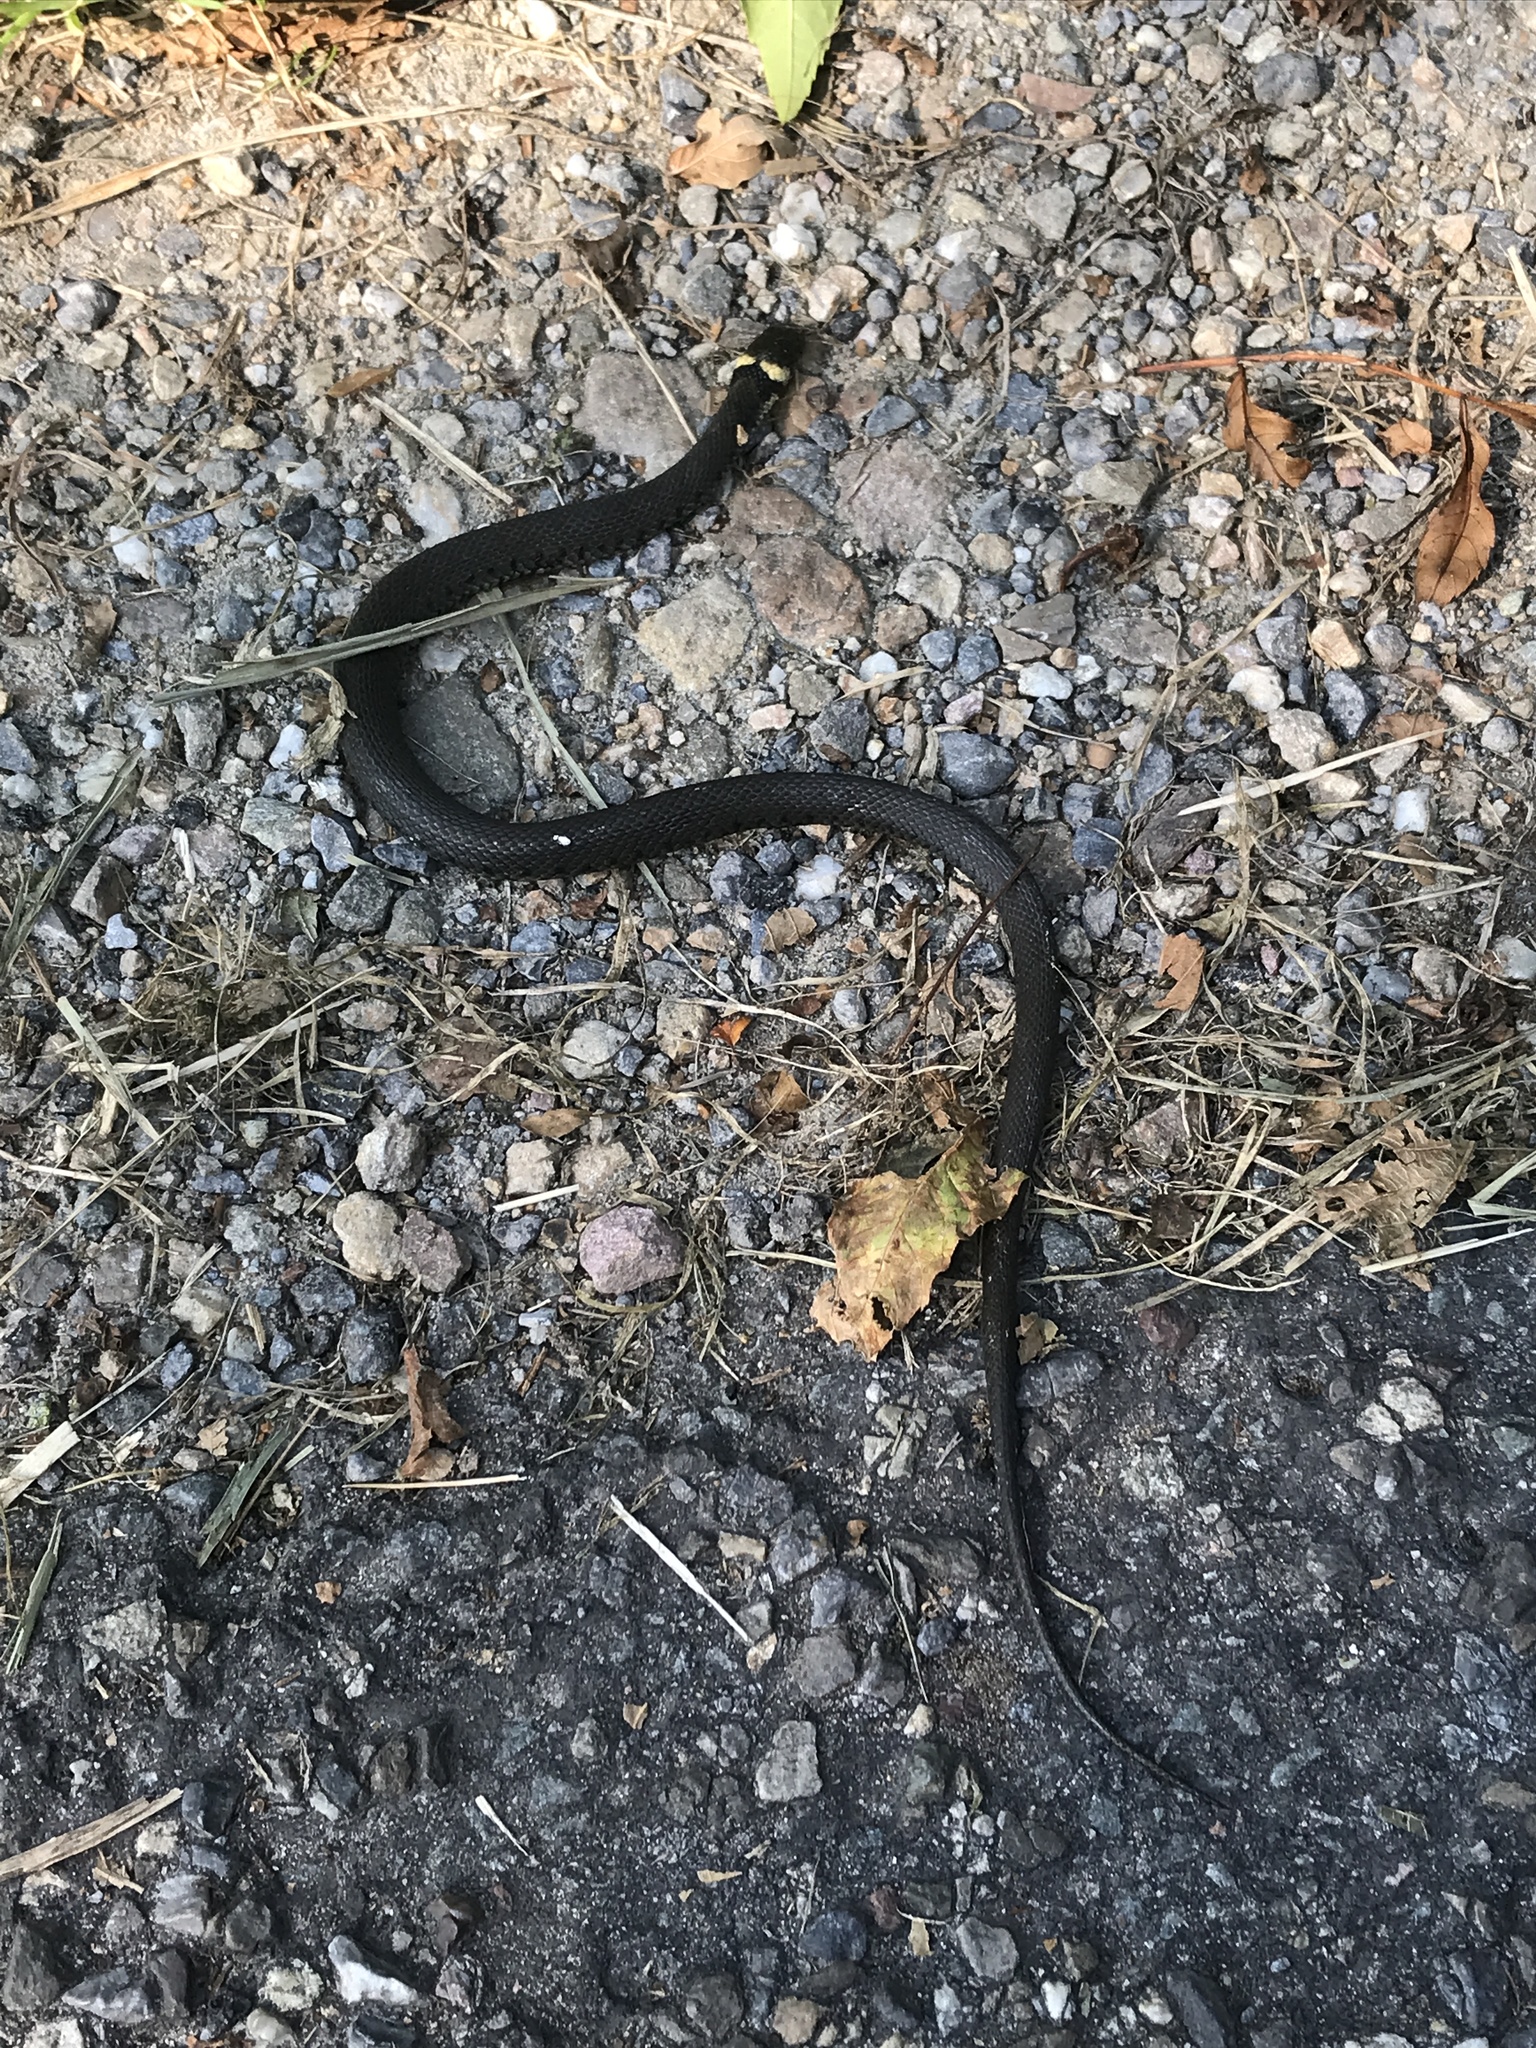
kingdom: Animalia
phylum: Chordata
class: Squamata
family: Colubridae
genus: Natrix
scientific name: Natrix helvetica
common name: Banded grass snake
